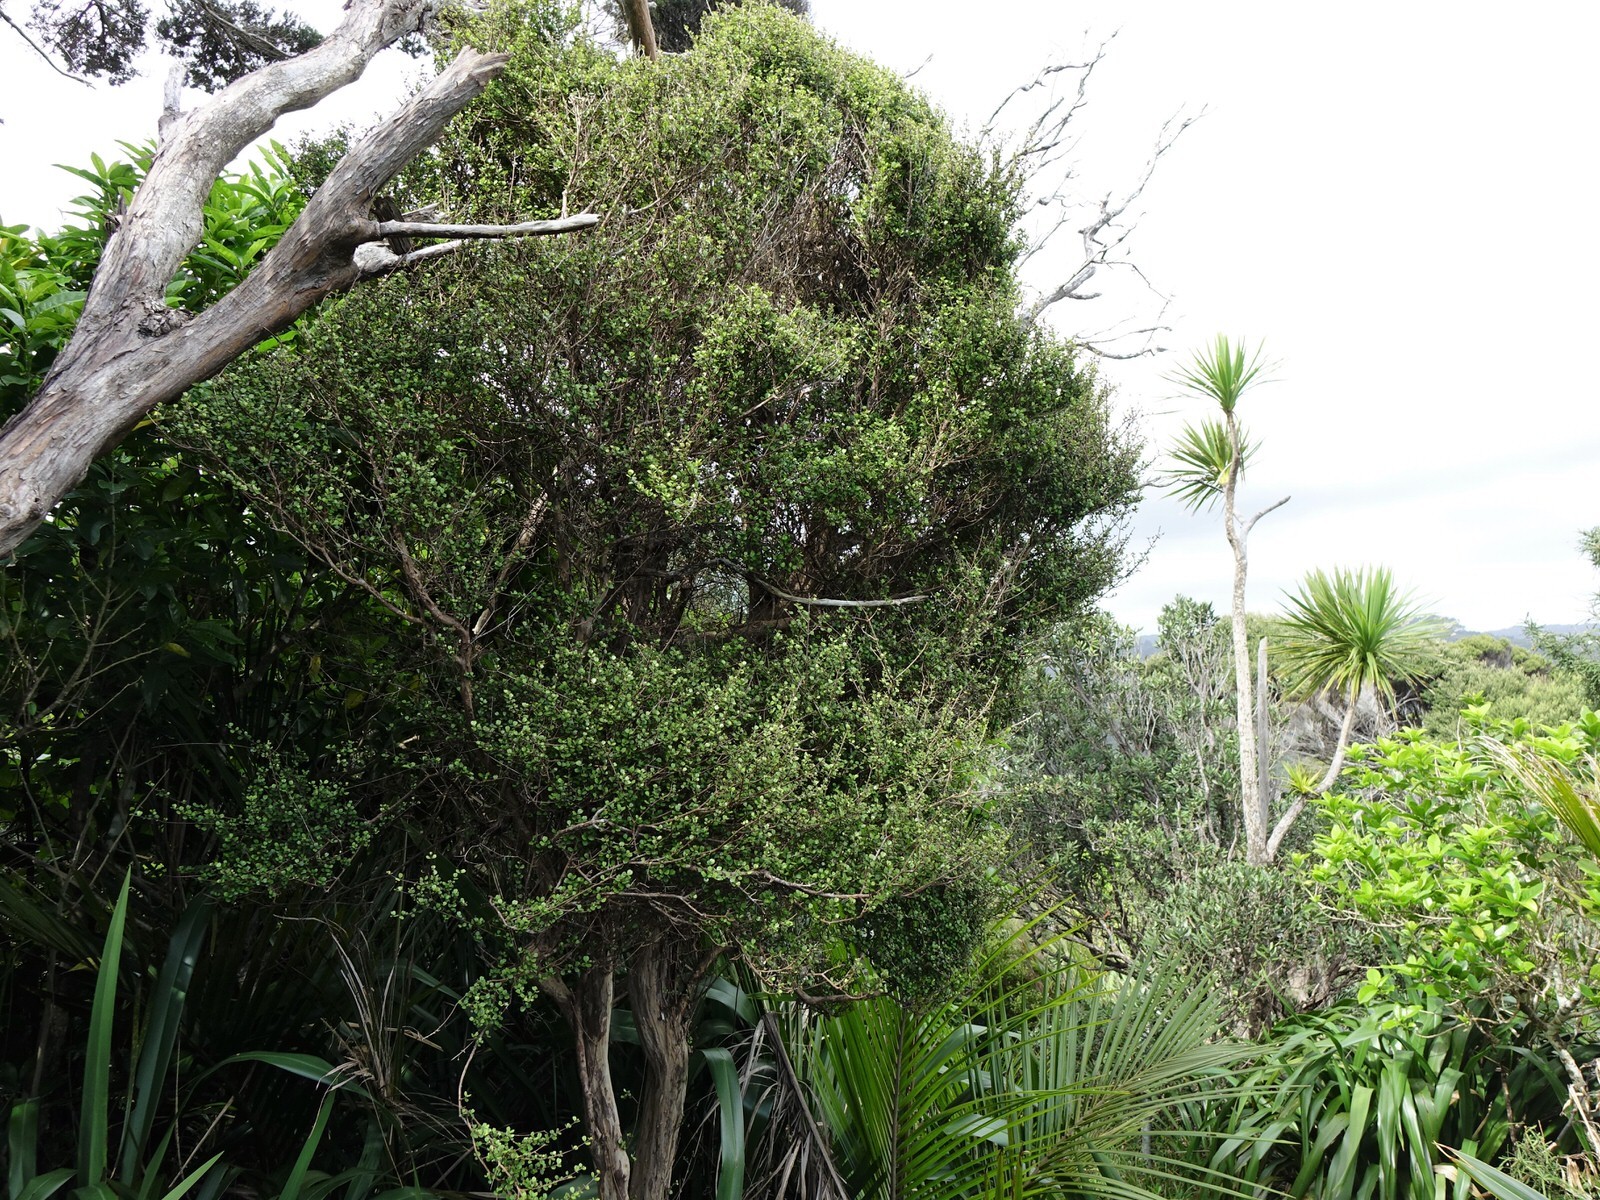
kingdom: Plantae
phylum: Tracheophyta
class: Magnoliopsida
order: Myrtales
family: Myrtaceae
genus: Lophomyrtus
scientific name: Lophomyrtus obcordata
